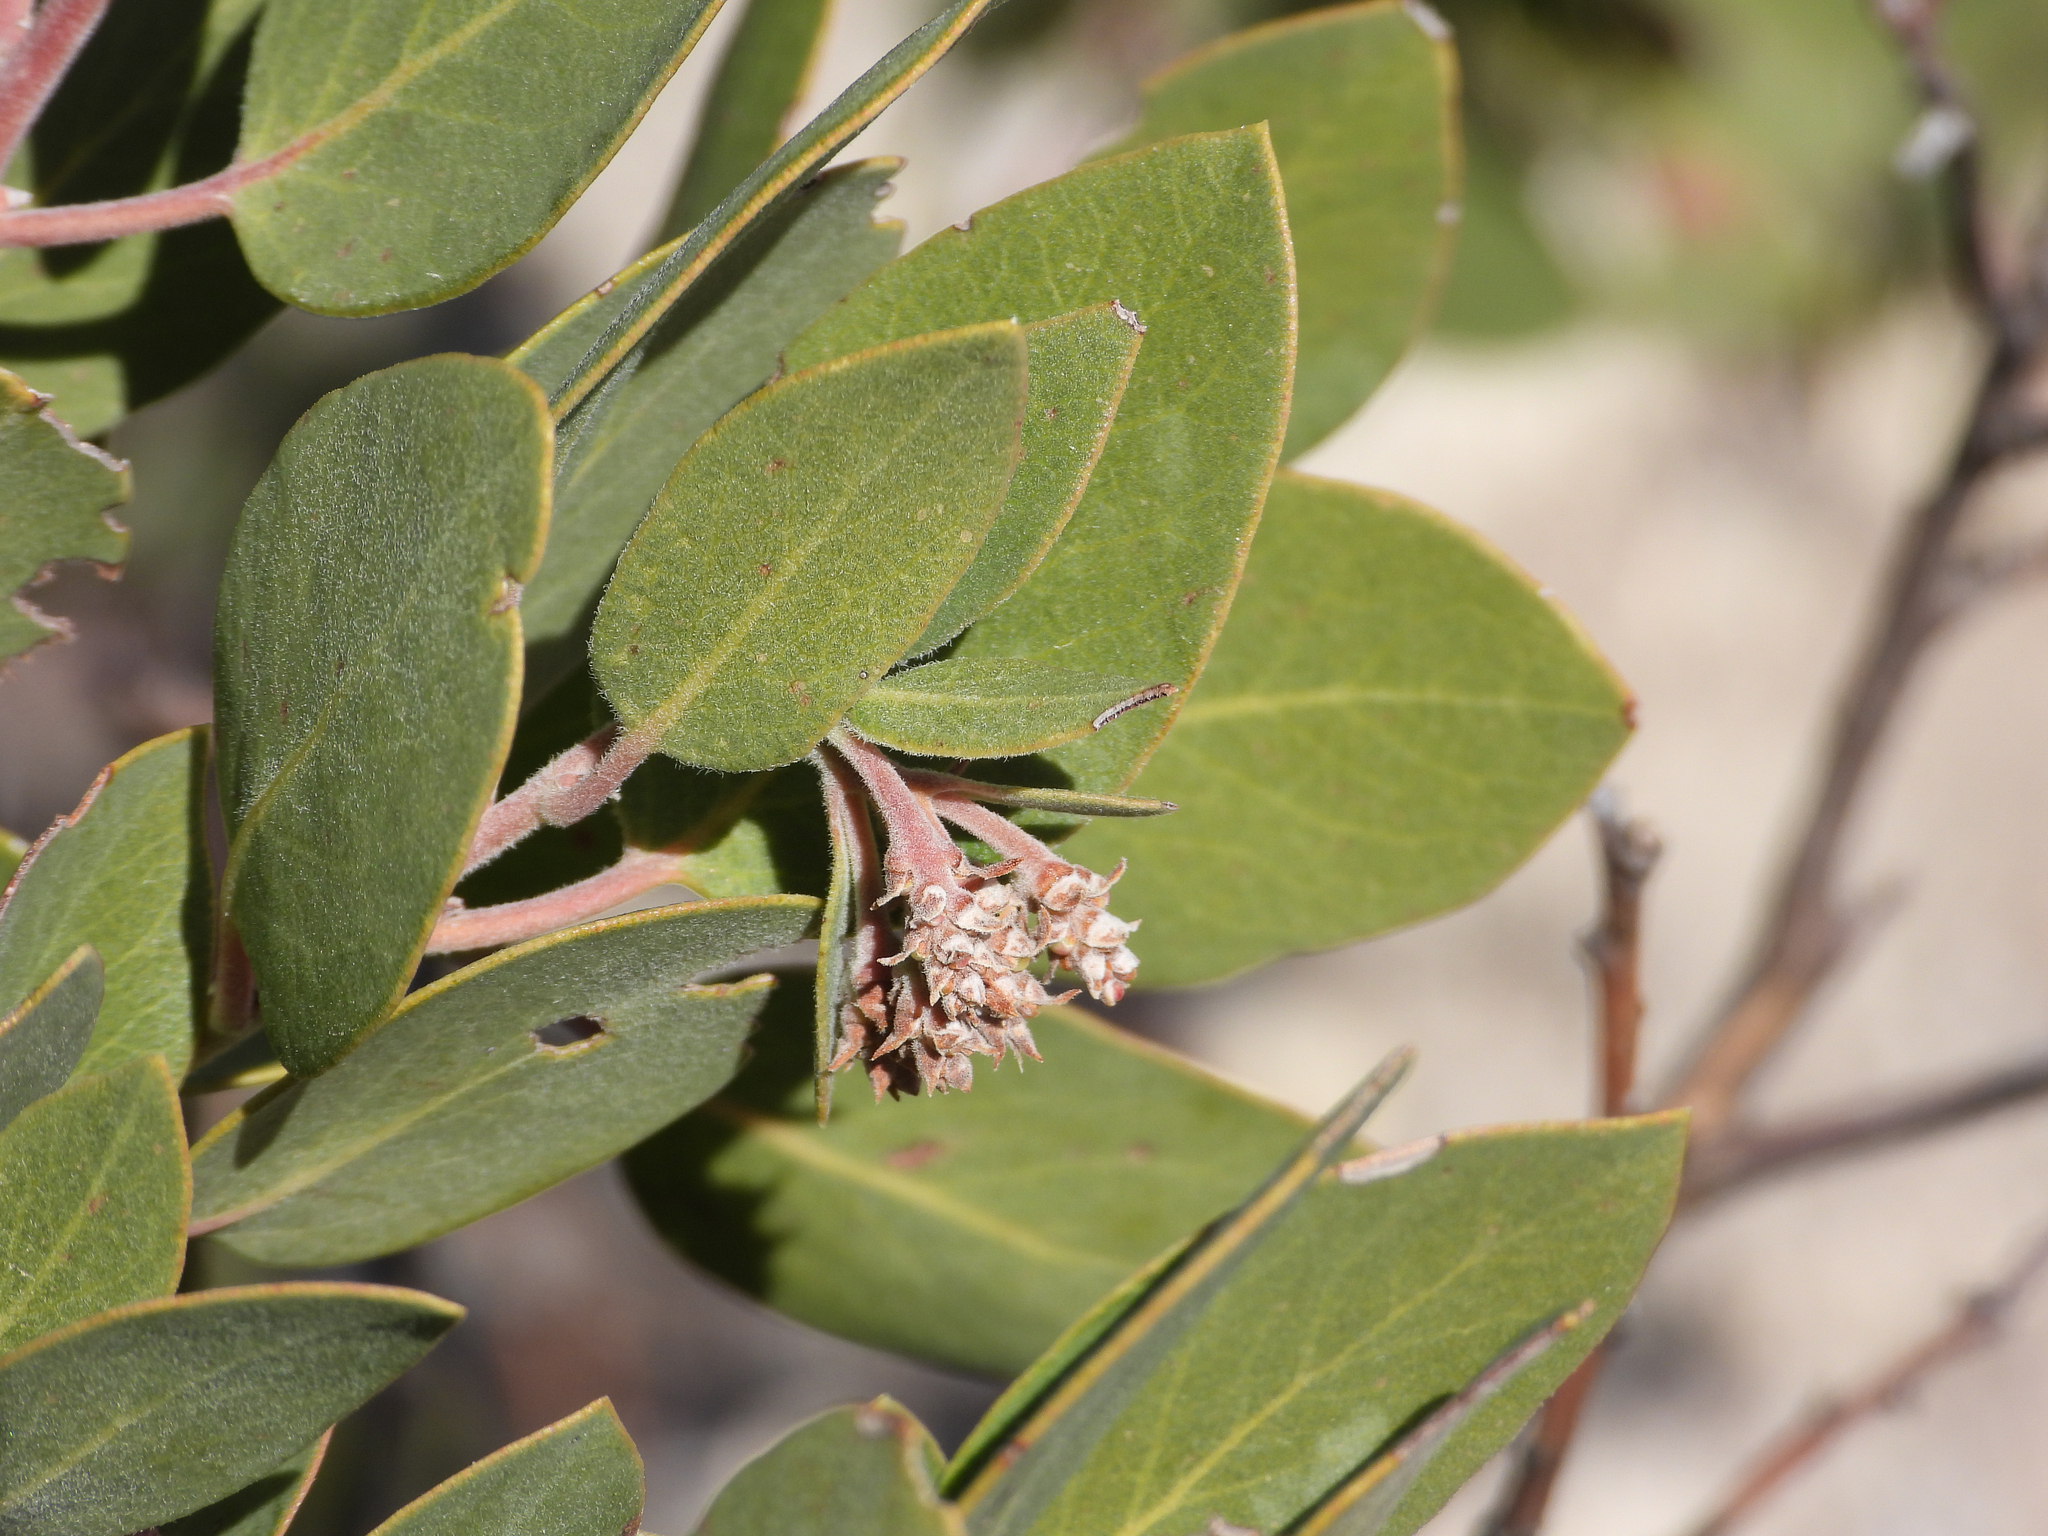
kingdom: Plantae
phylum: Tracheophyta
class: Magnoliopsida
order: Ericales
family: Ericaceae
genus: Arctostaphylos
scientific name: Arctostaphylos glandulosa
